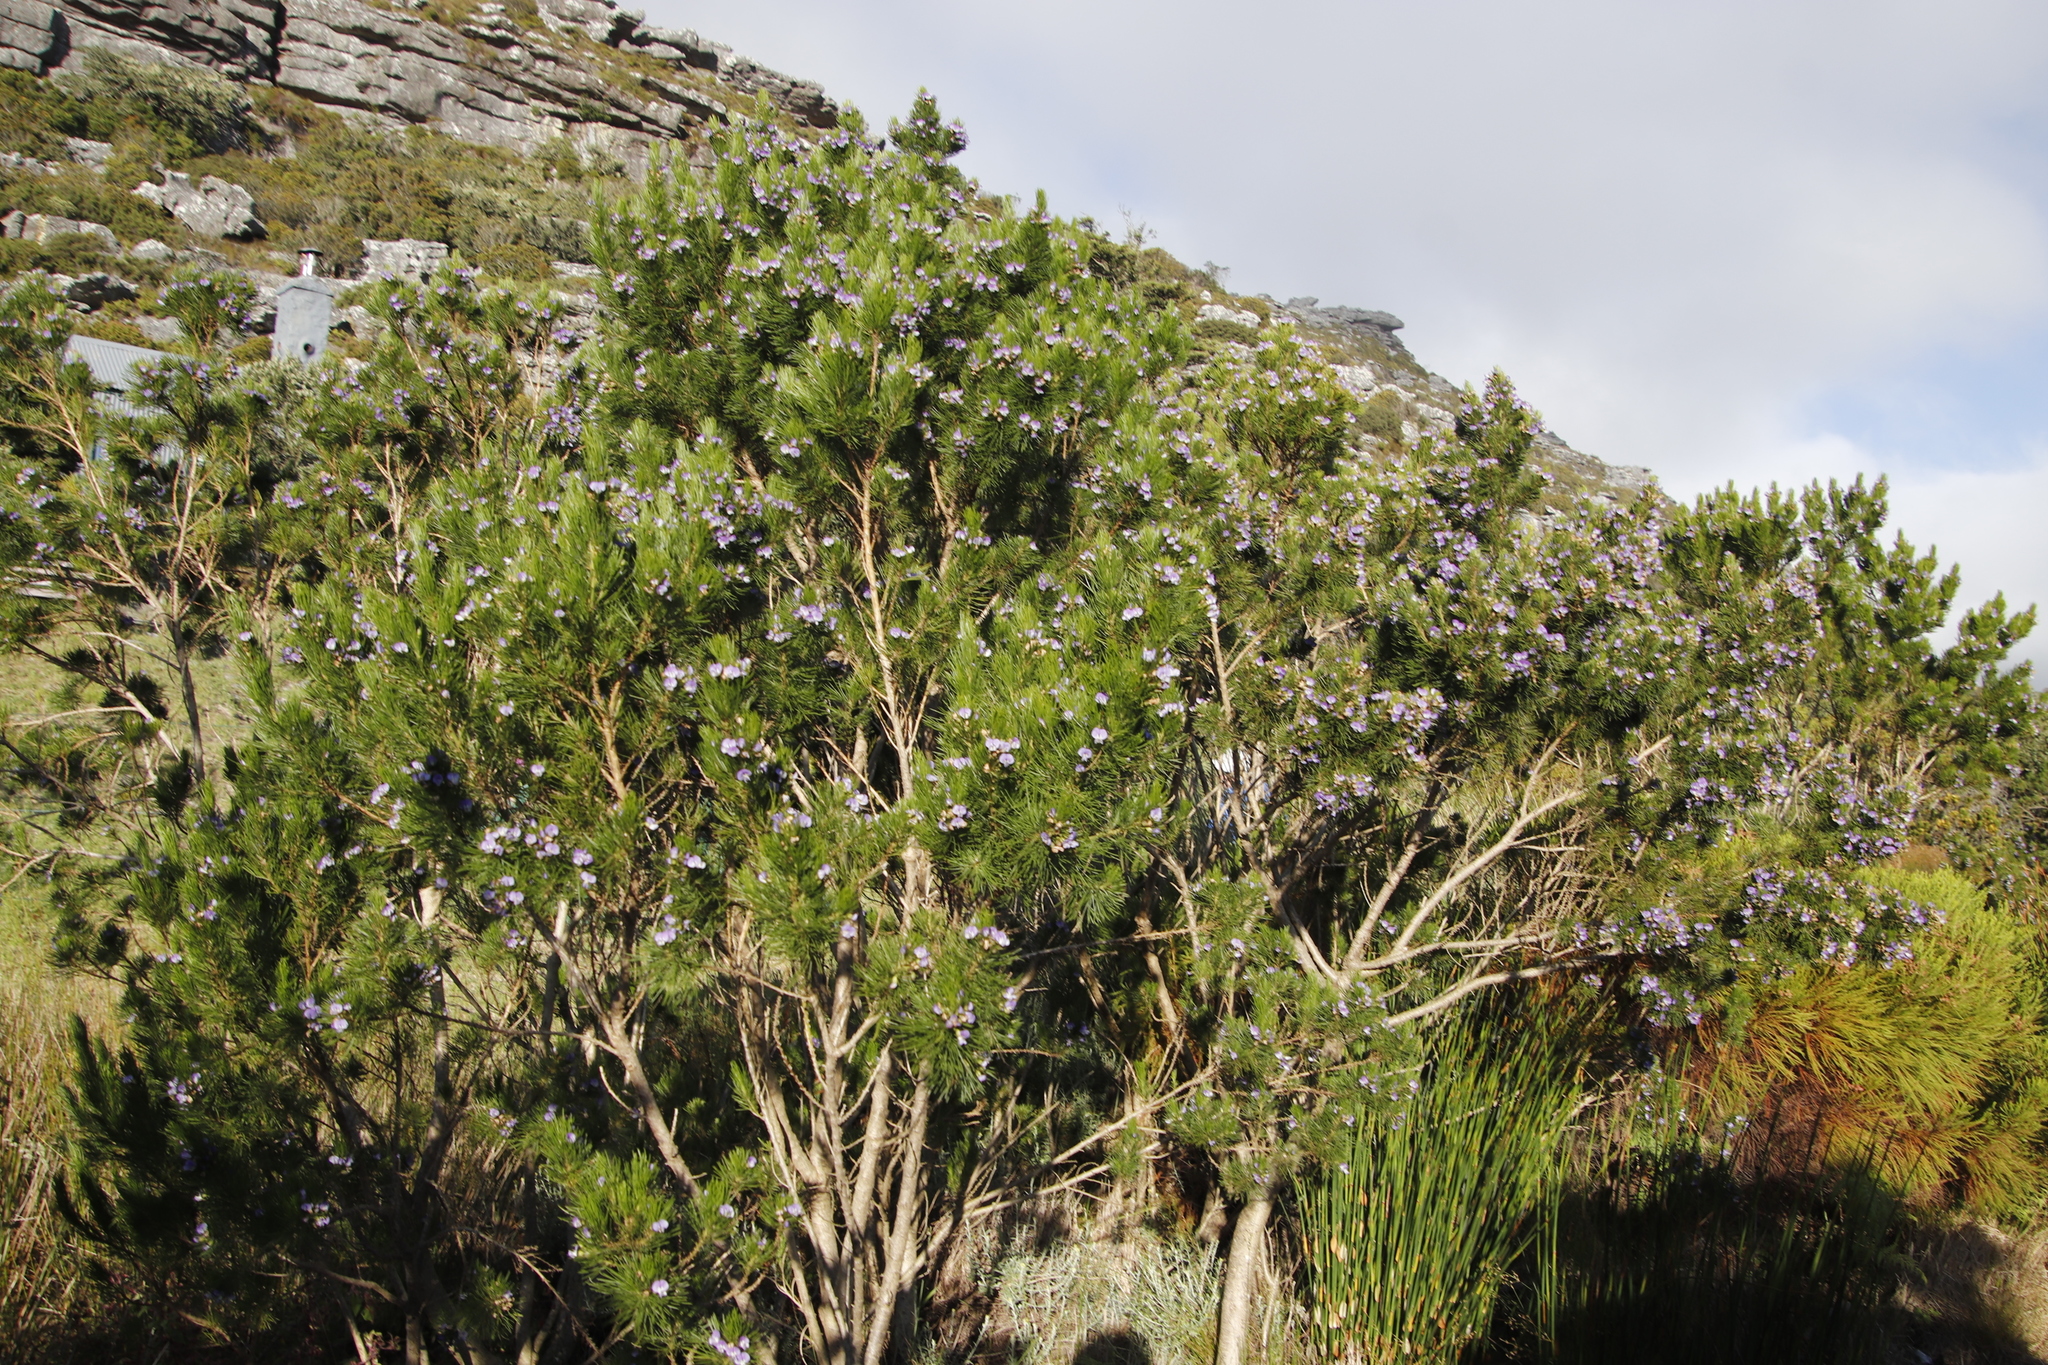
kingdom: Plantae
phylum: Tracheophyta
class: Magnoliopsida
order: Fabales
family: Fabaceae
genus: Psoralea
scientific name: Psoralea pinnata
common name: African scurfpea
